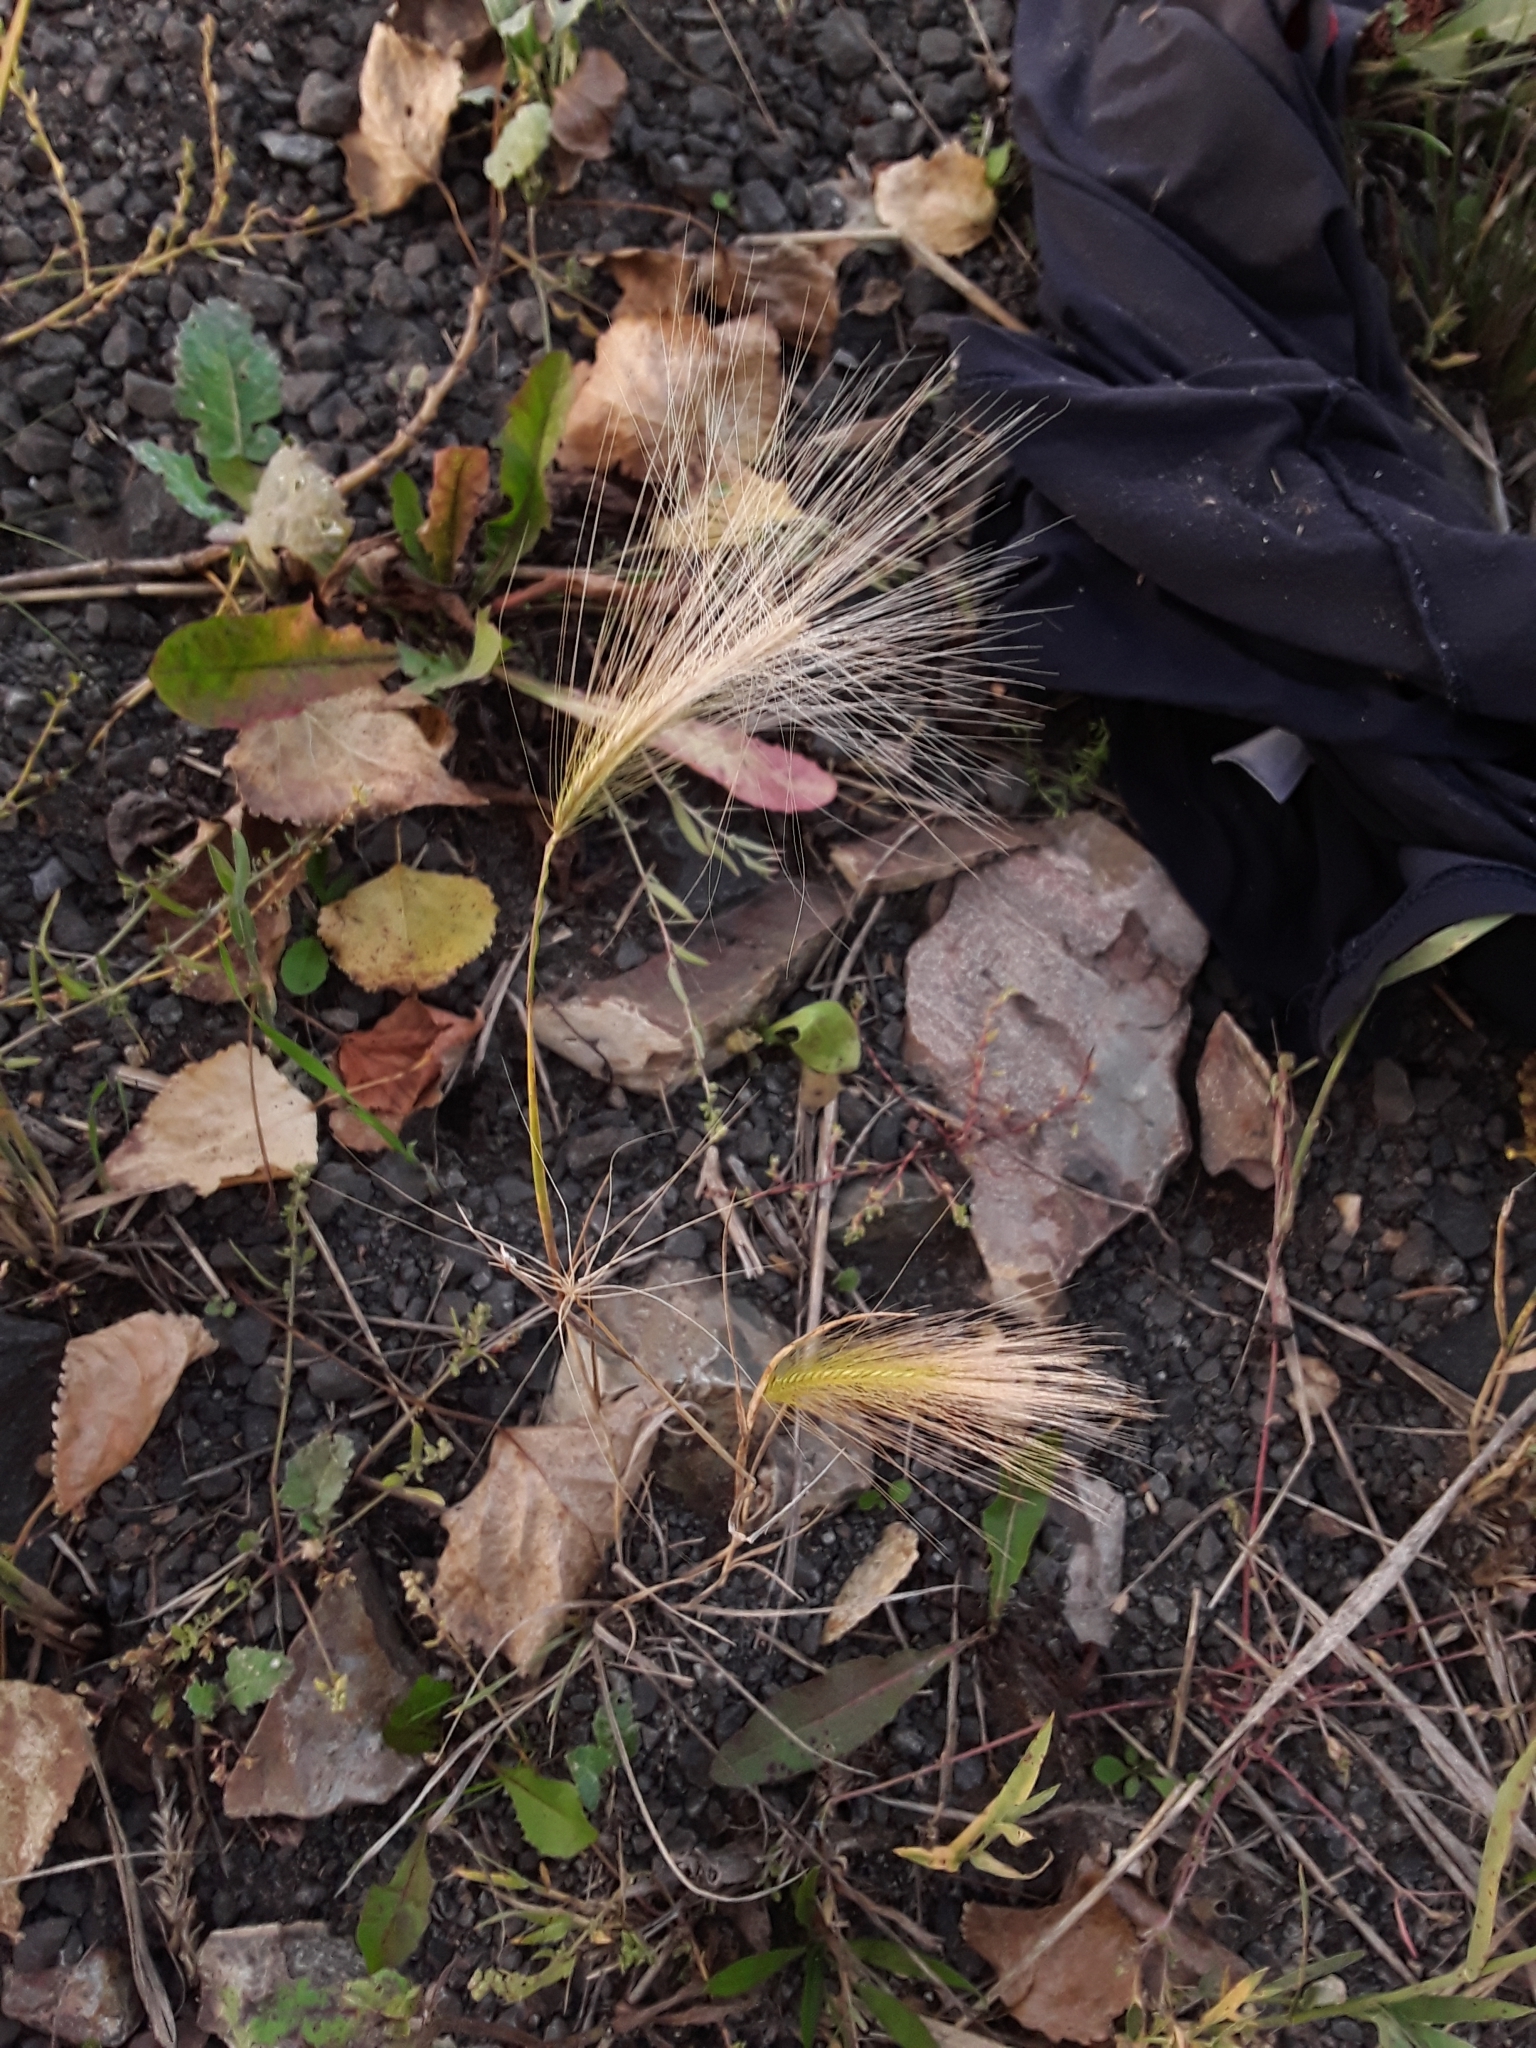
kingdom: Plantae
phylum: Tracheophyta
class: Liliopsida
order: Poales
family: Poaceae
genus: Hordeum
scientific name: Hordeum jubatum
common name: Foxtail barley
